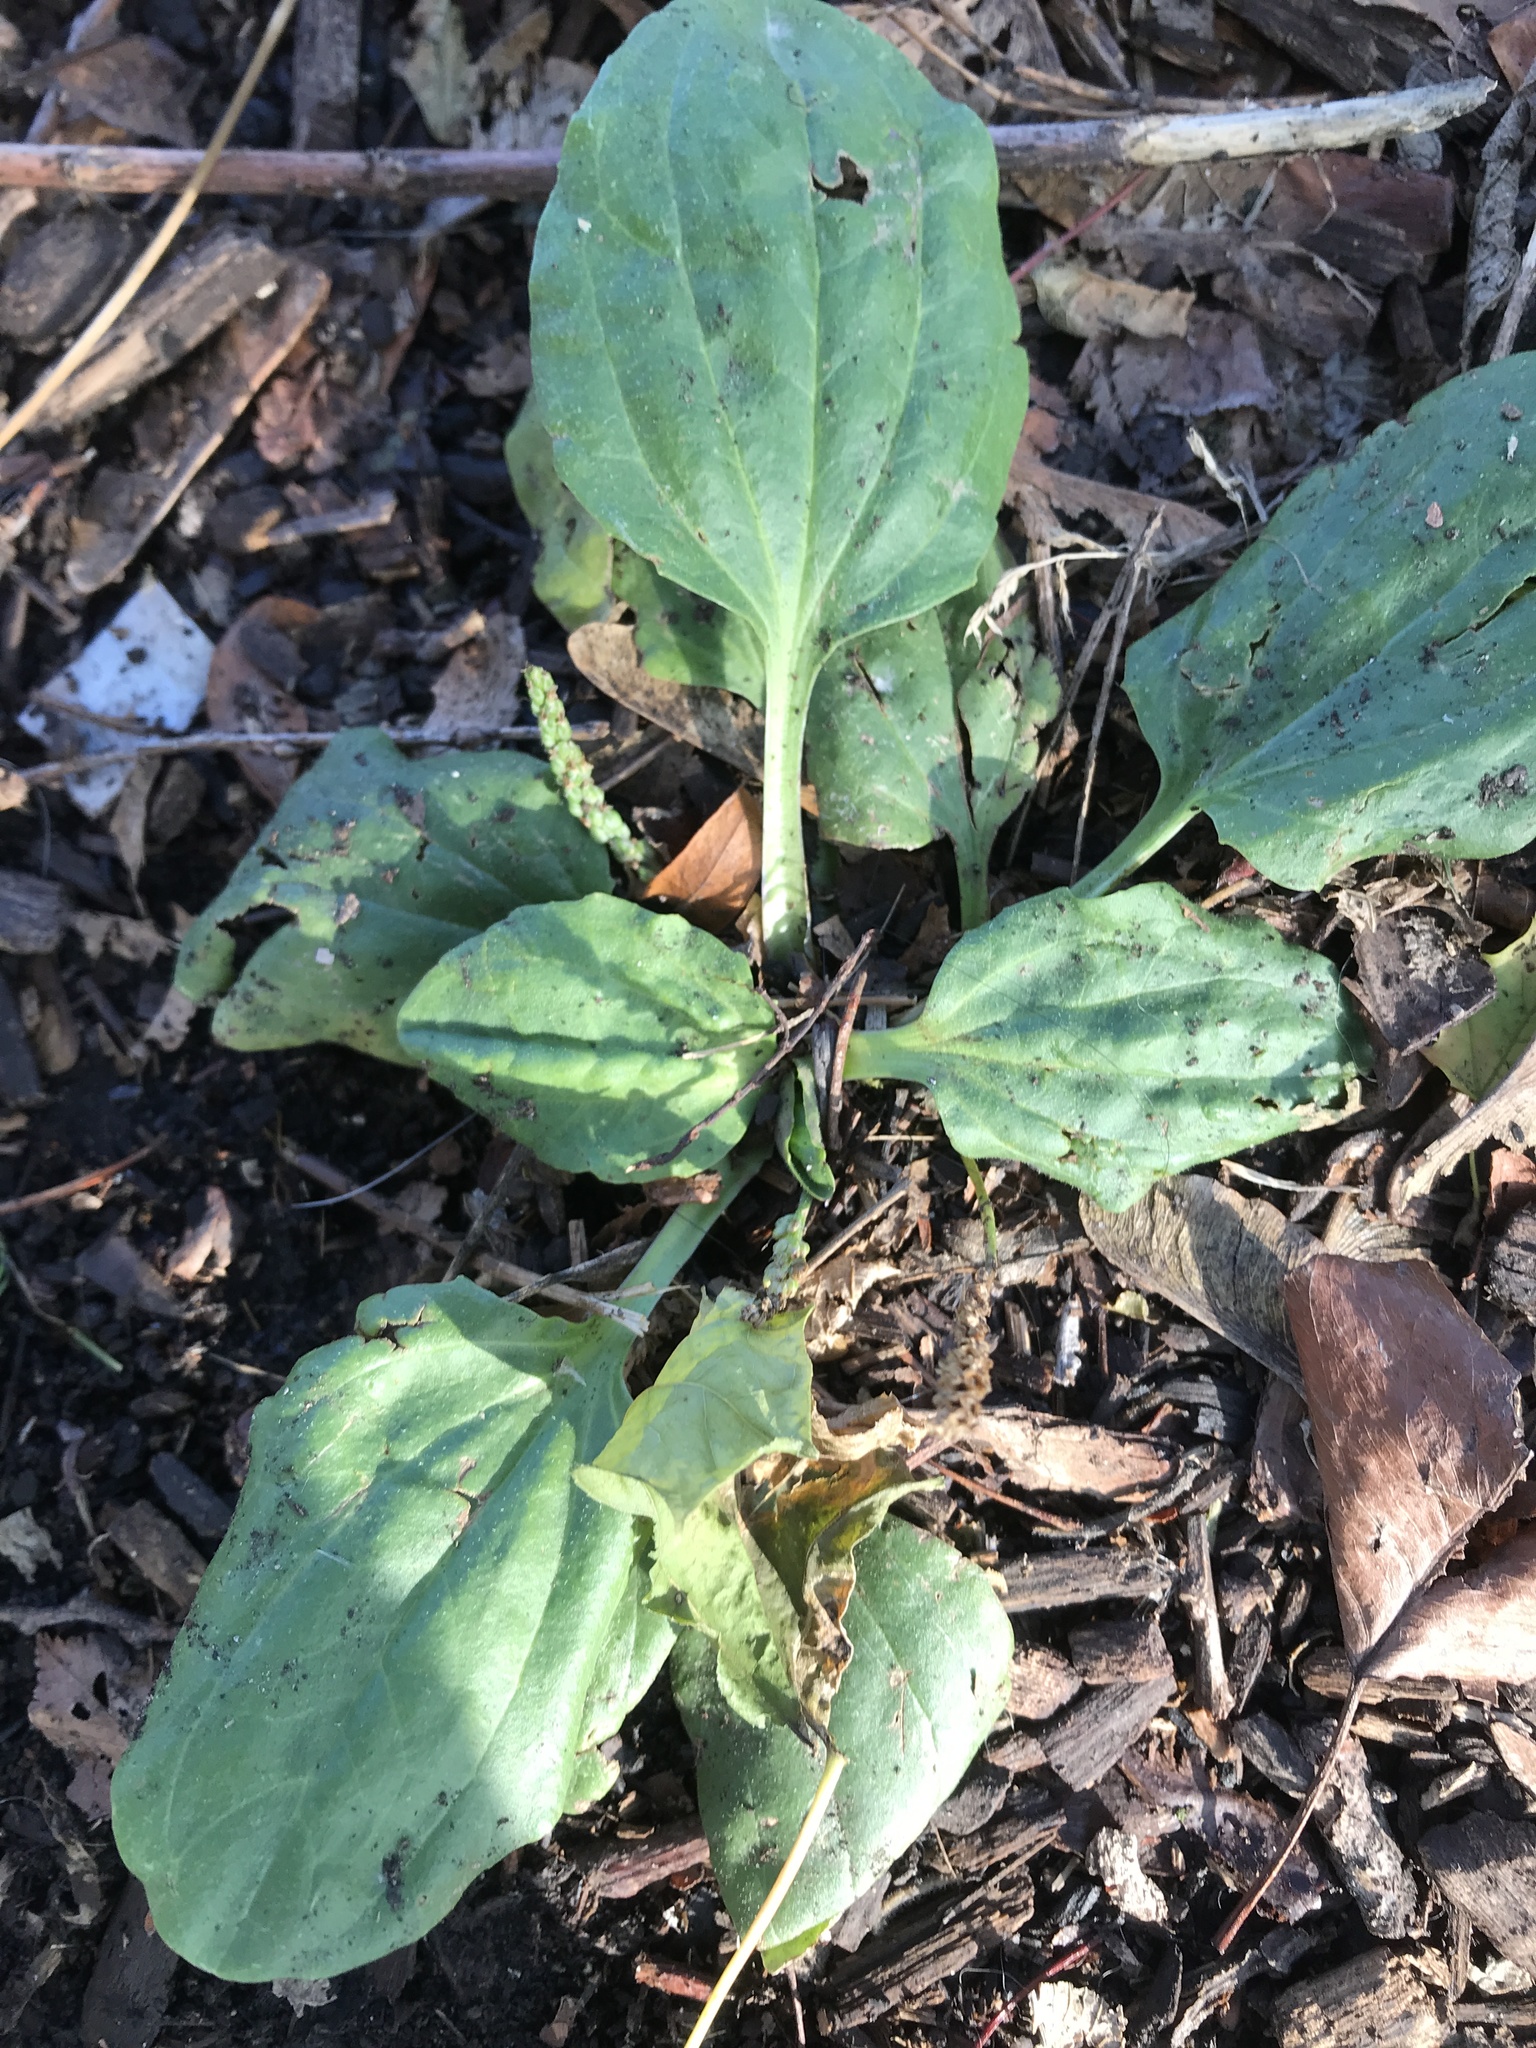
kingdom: Plantae
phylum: Tracheophyta
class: Magnoliopsida
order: Lamiales
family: Plantaginaceae
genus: Plantago
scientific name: Plantago major
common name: Common plantain
